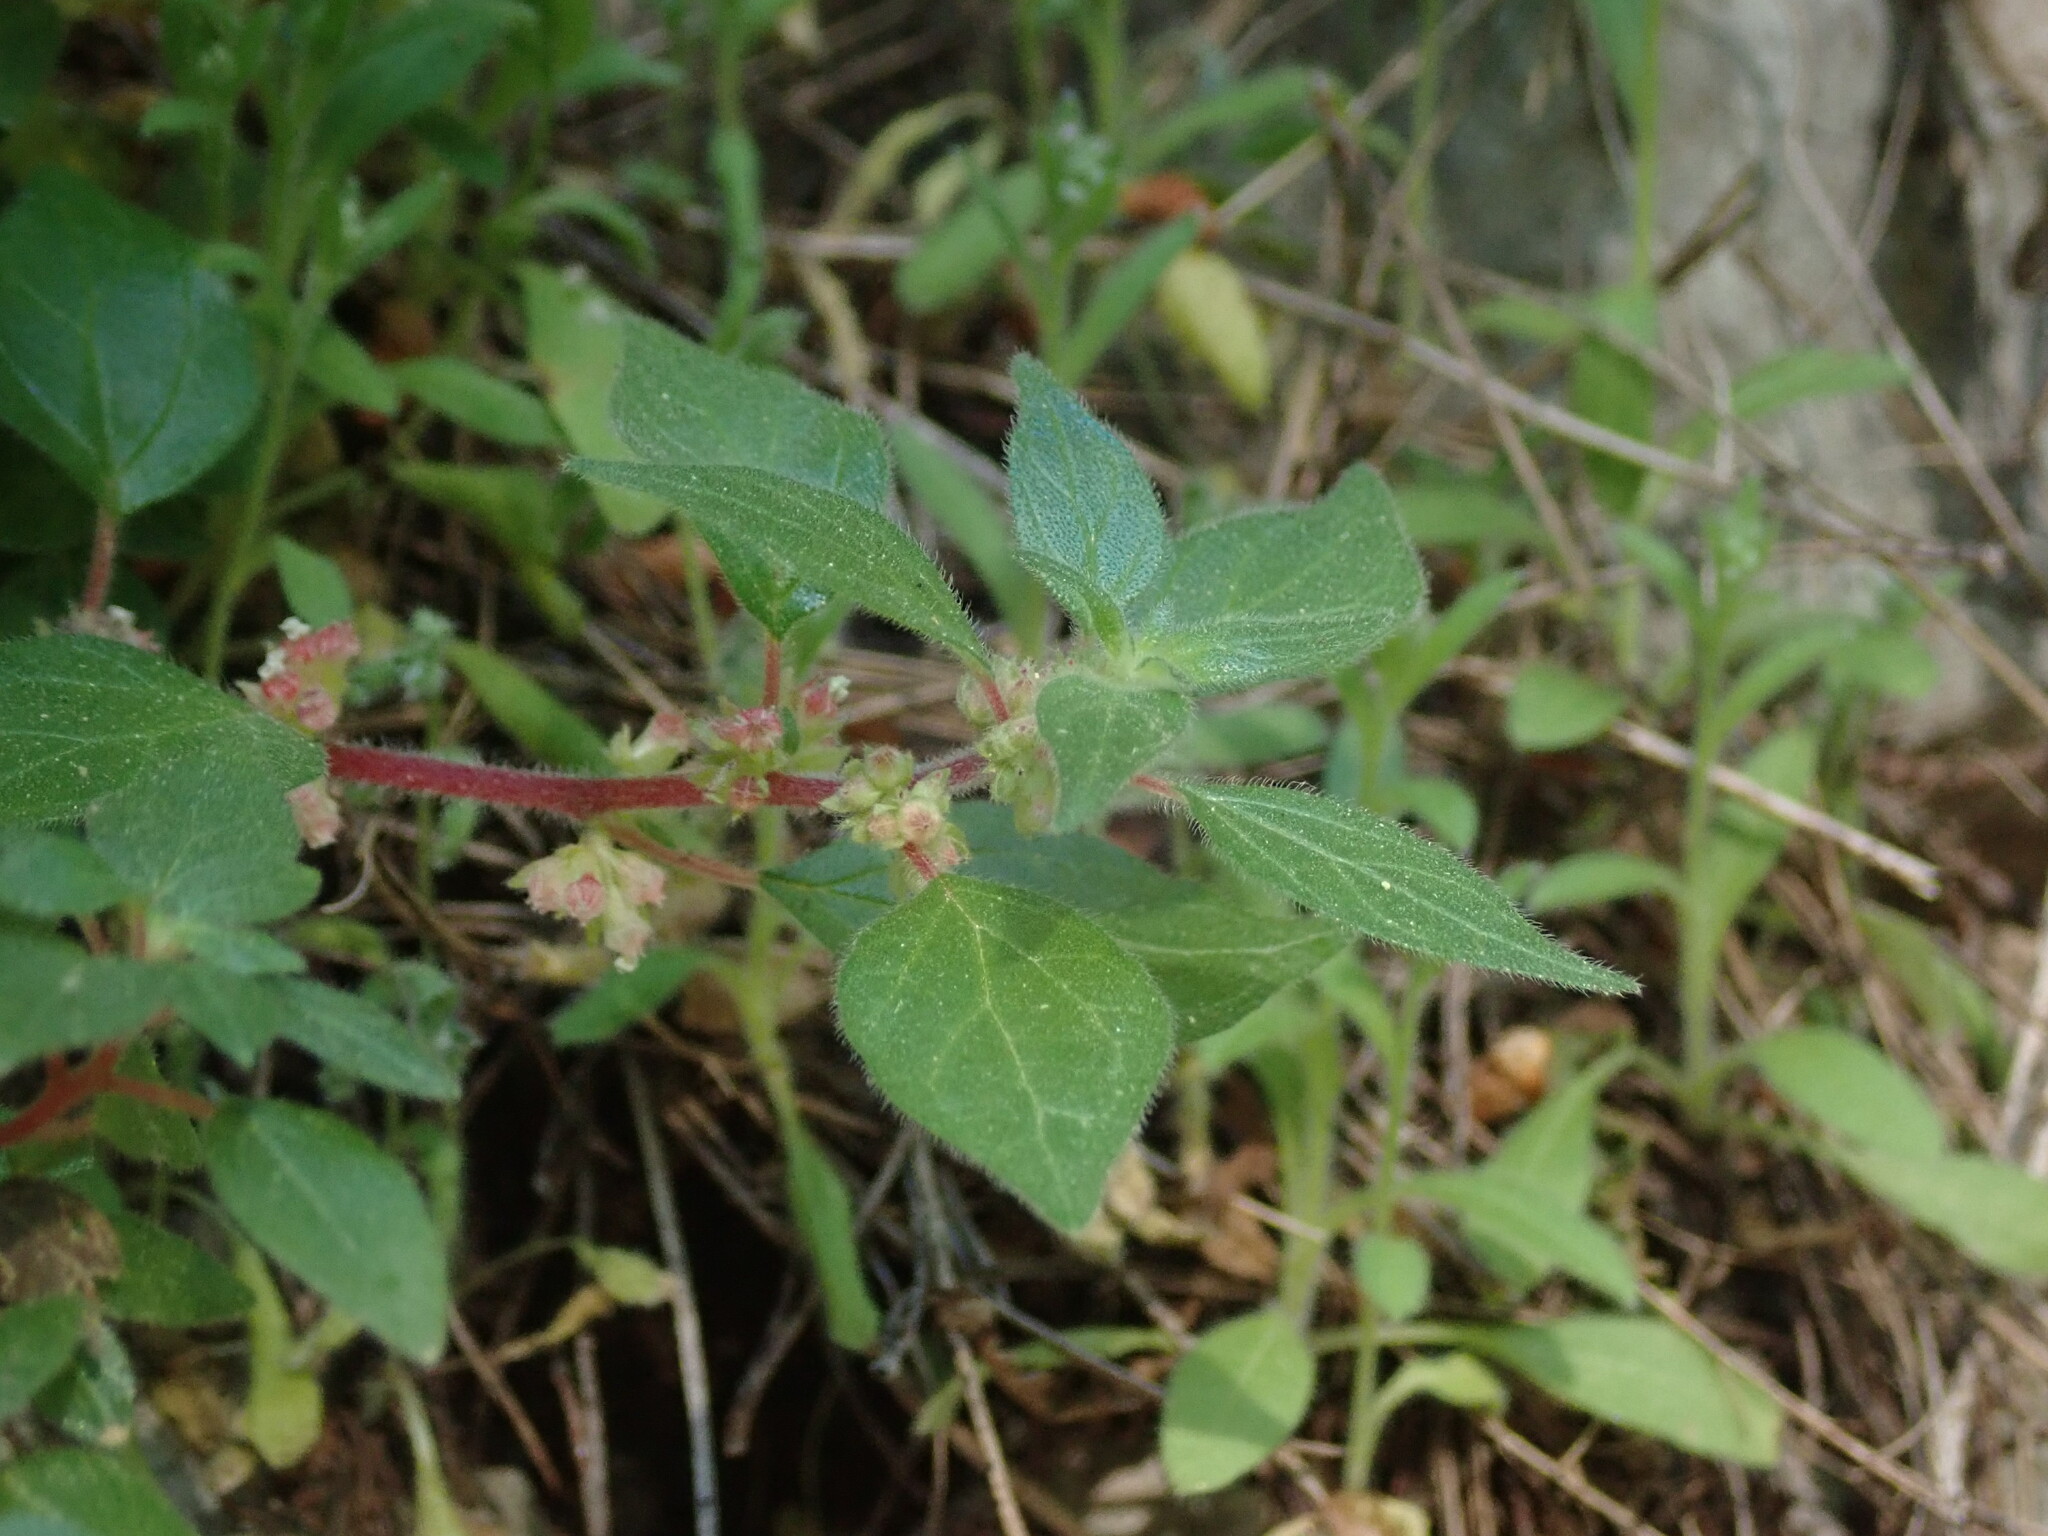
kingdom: Plantae
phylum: Tracheophyta
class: Magnoliopsida
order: Rosales
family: Urticaceae
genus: Parietaria
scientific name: Parietaria judaica
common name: Pellitory-of-the-wall
